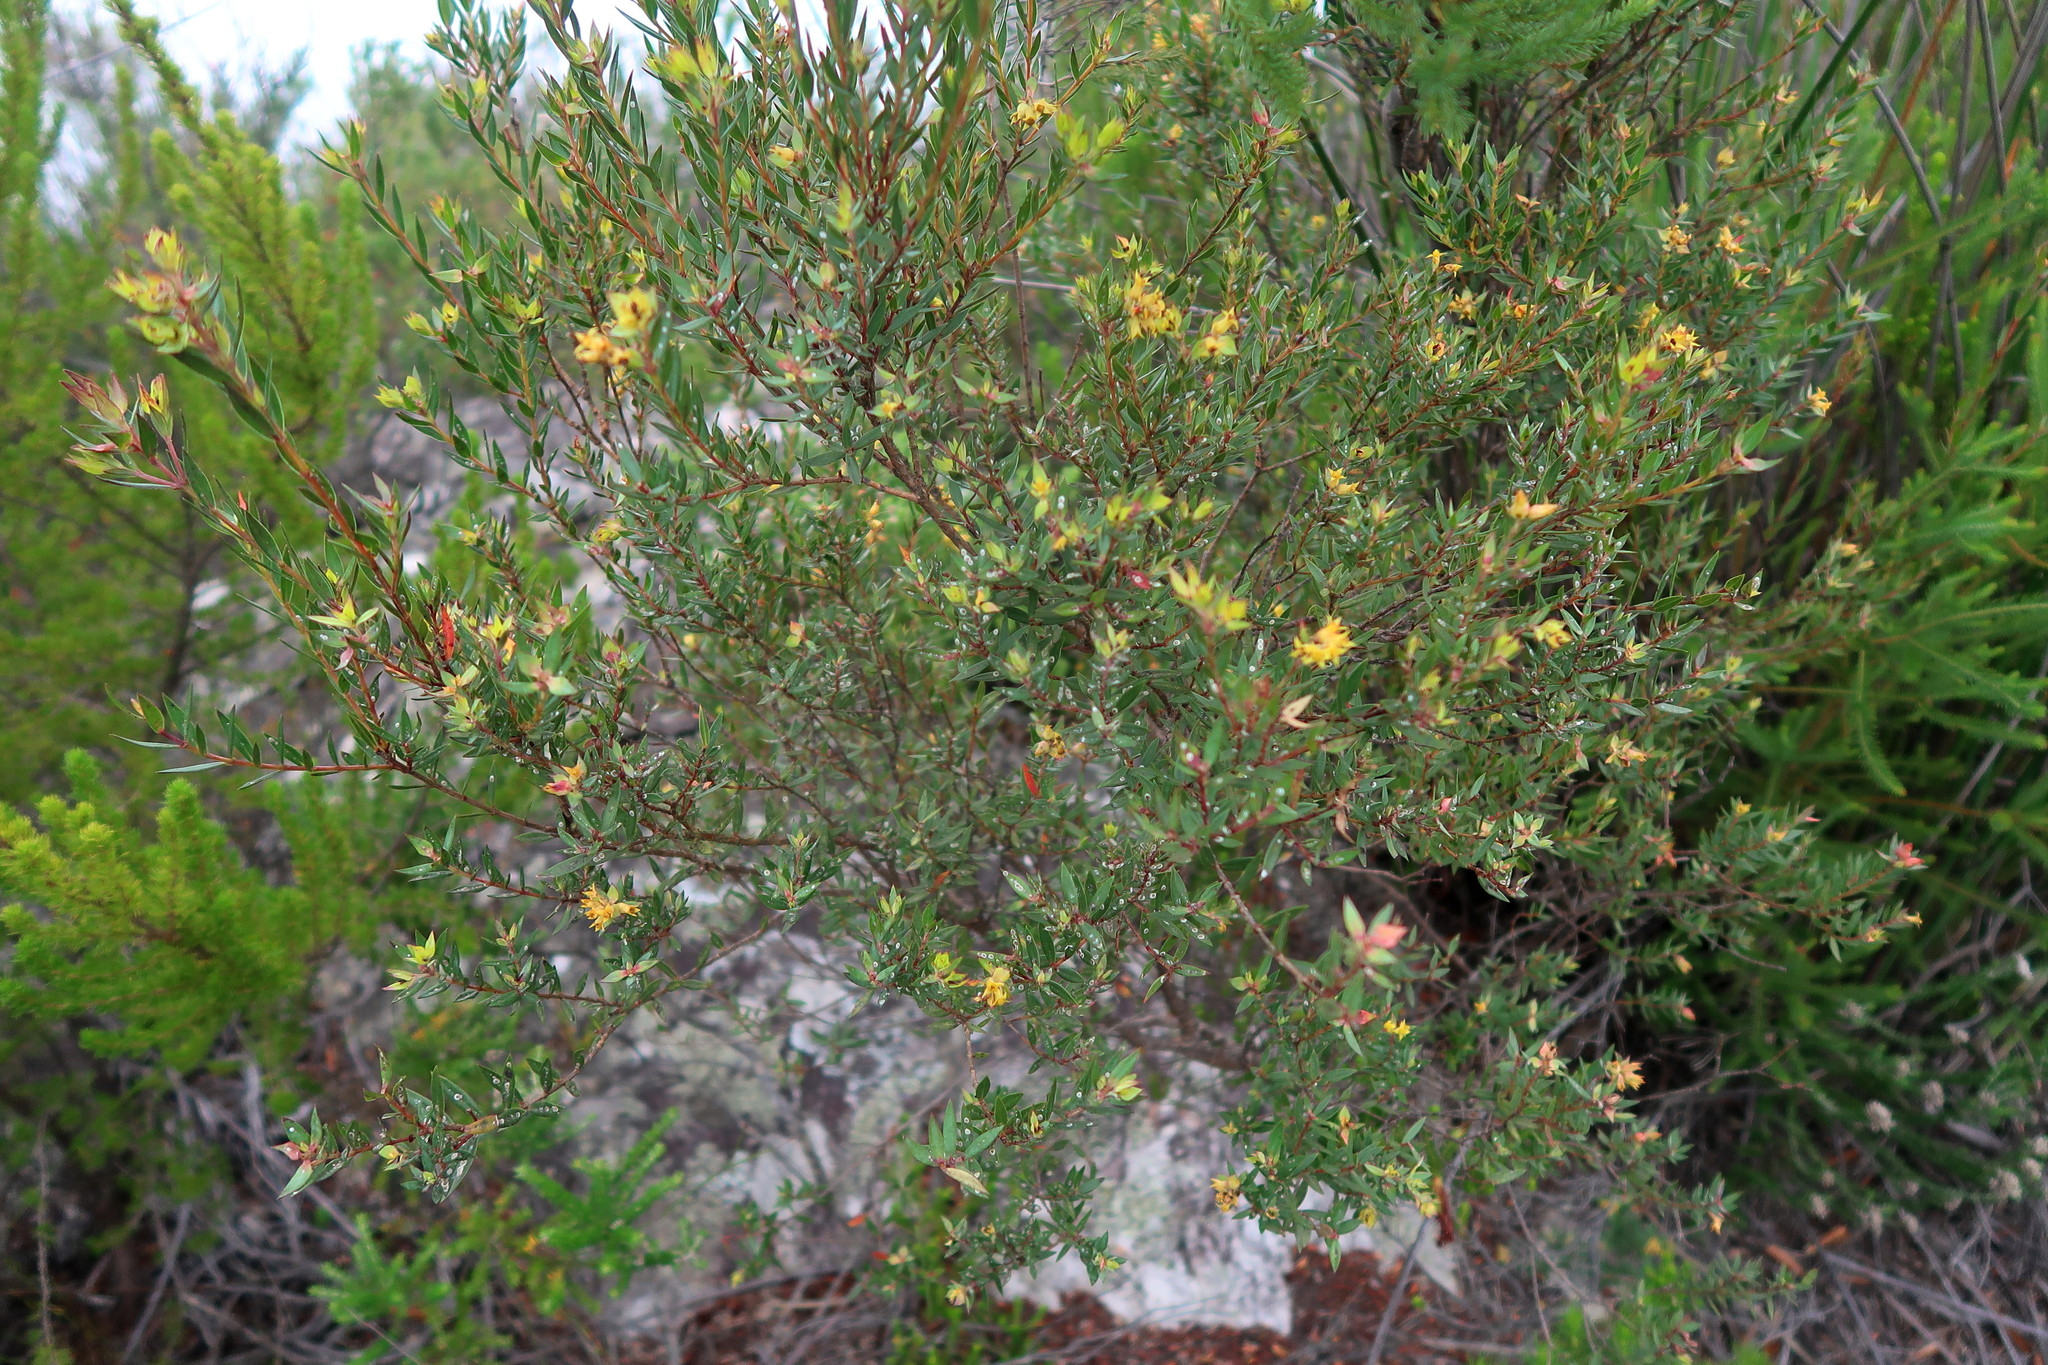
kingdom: Plantae
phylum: Tracheophyta
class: Magnoliopsida
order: Myrtales
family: Penaeaceae
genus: Penaea
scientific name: Penaea acutifolia
